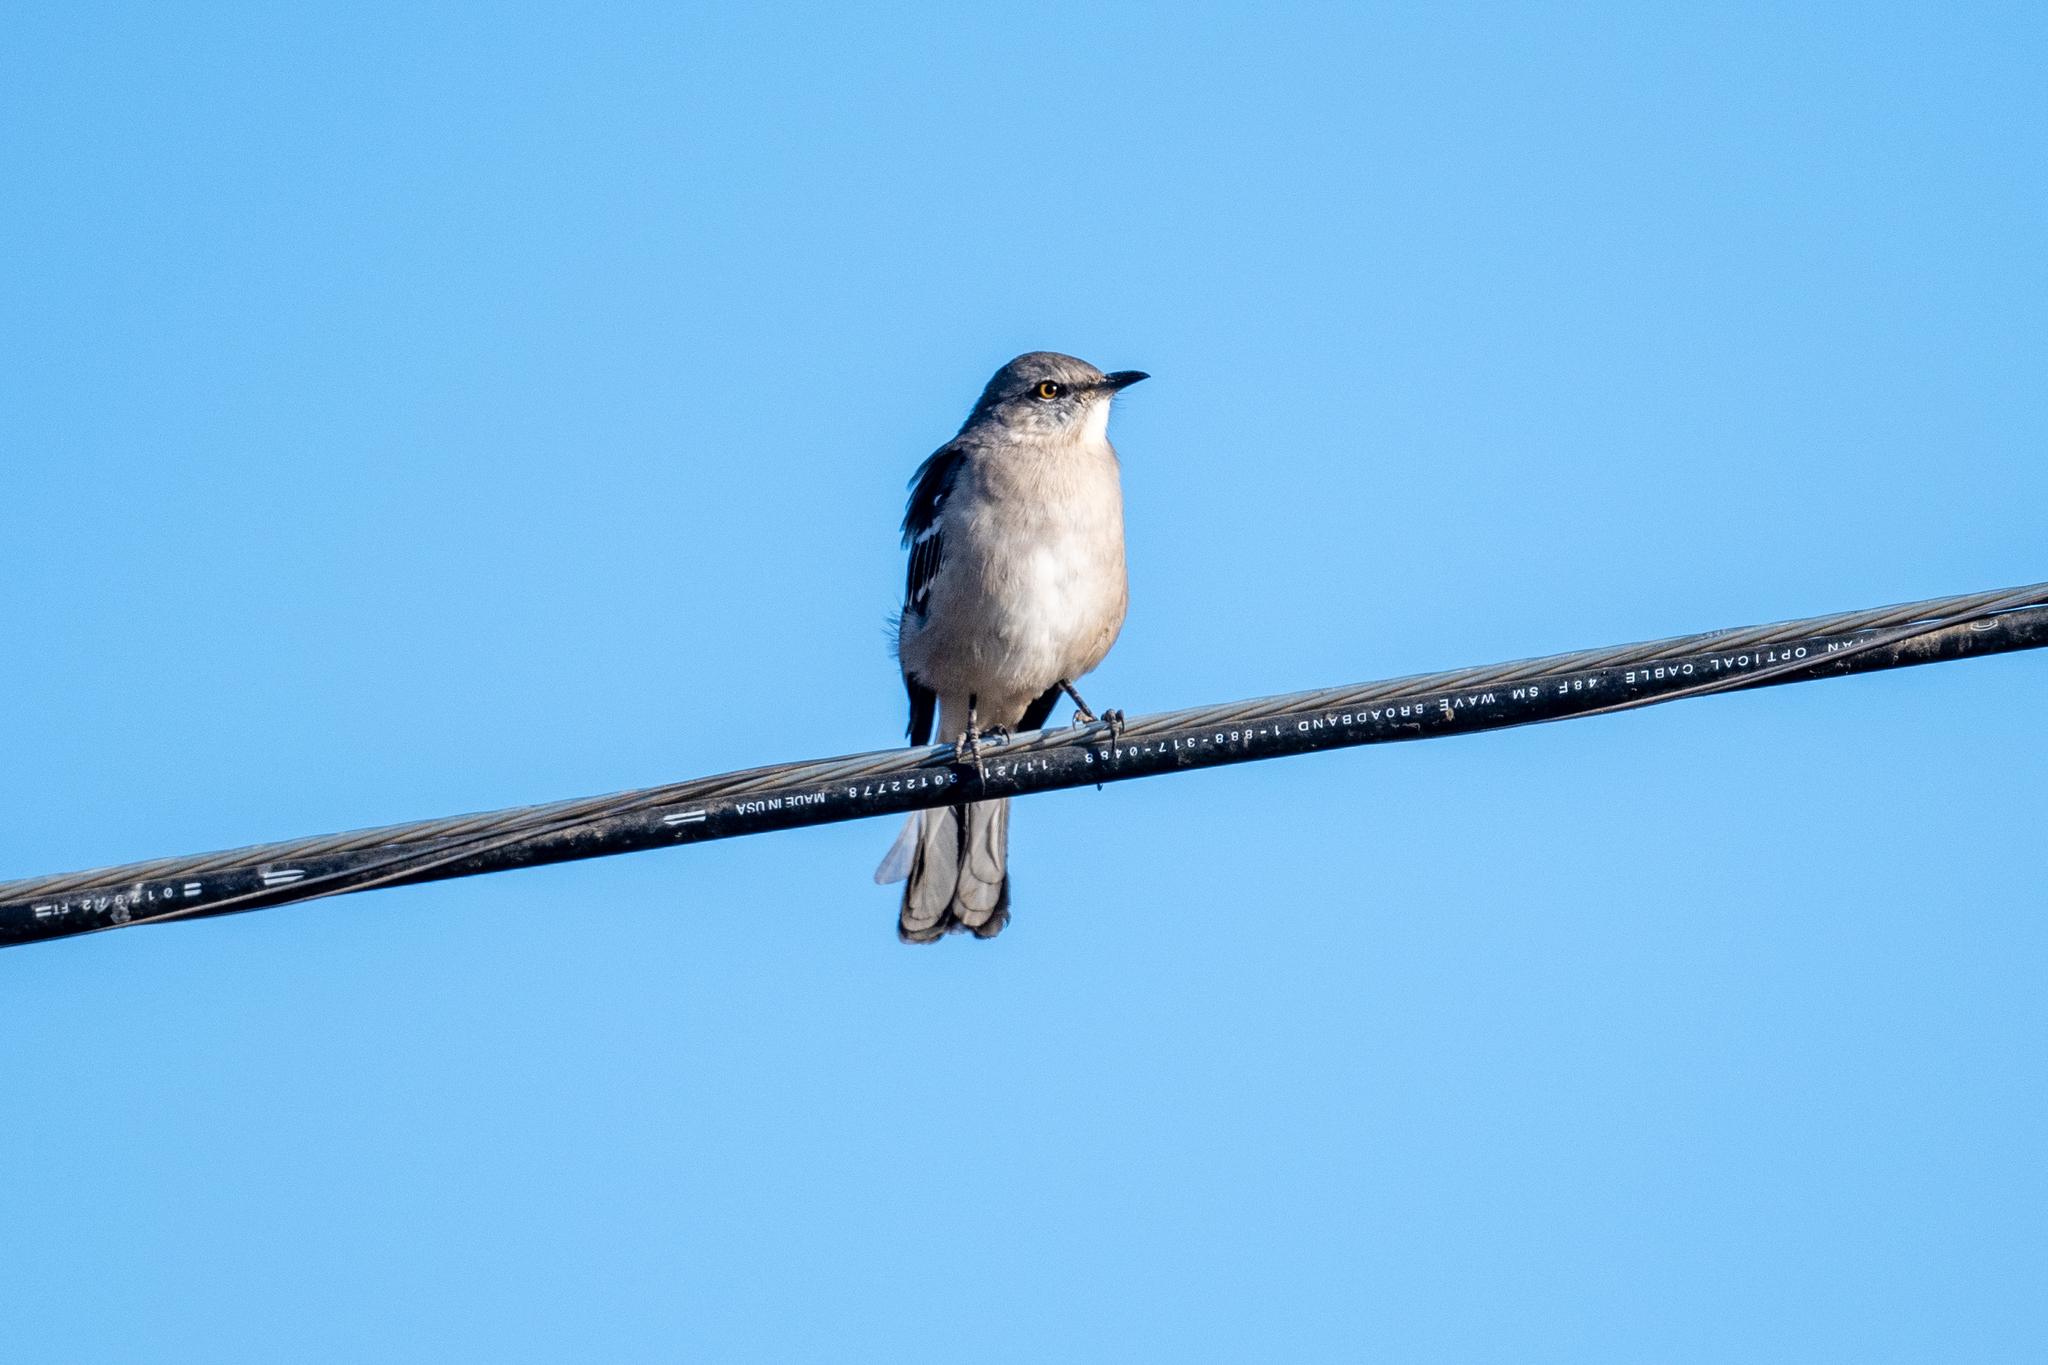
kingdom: Animalia
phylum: Chordata
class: Aves
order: Passeriformes
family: Mimidae
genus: Mimus
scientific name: Mimus polyglottos
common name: Northern mockingbird
